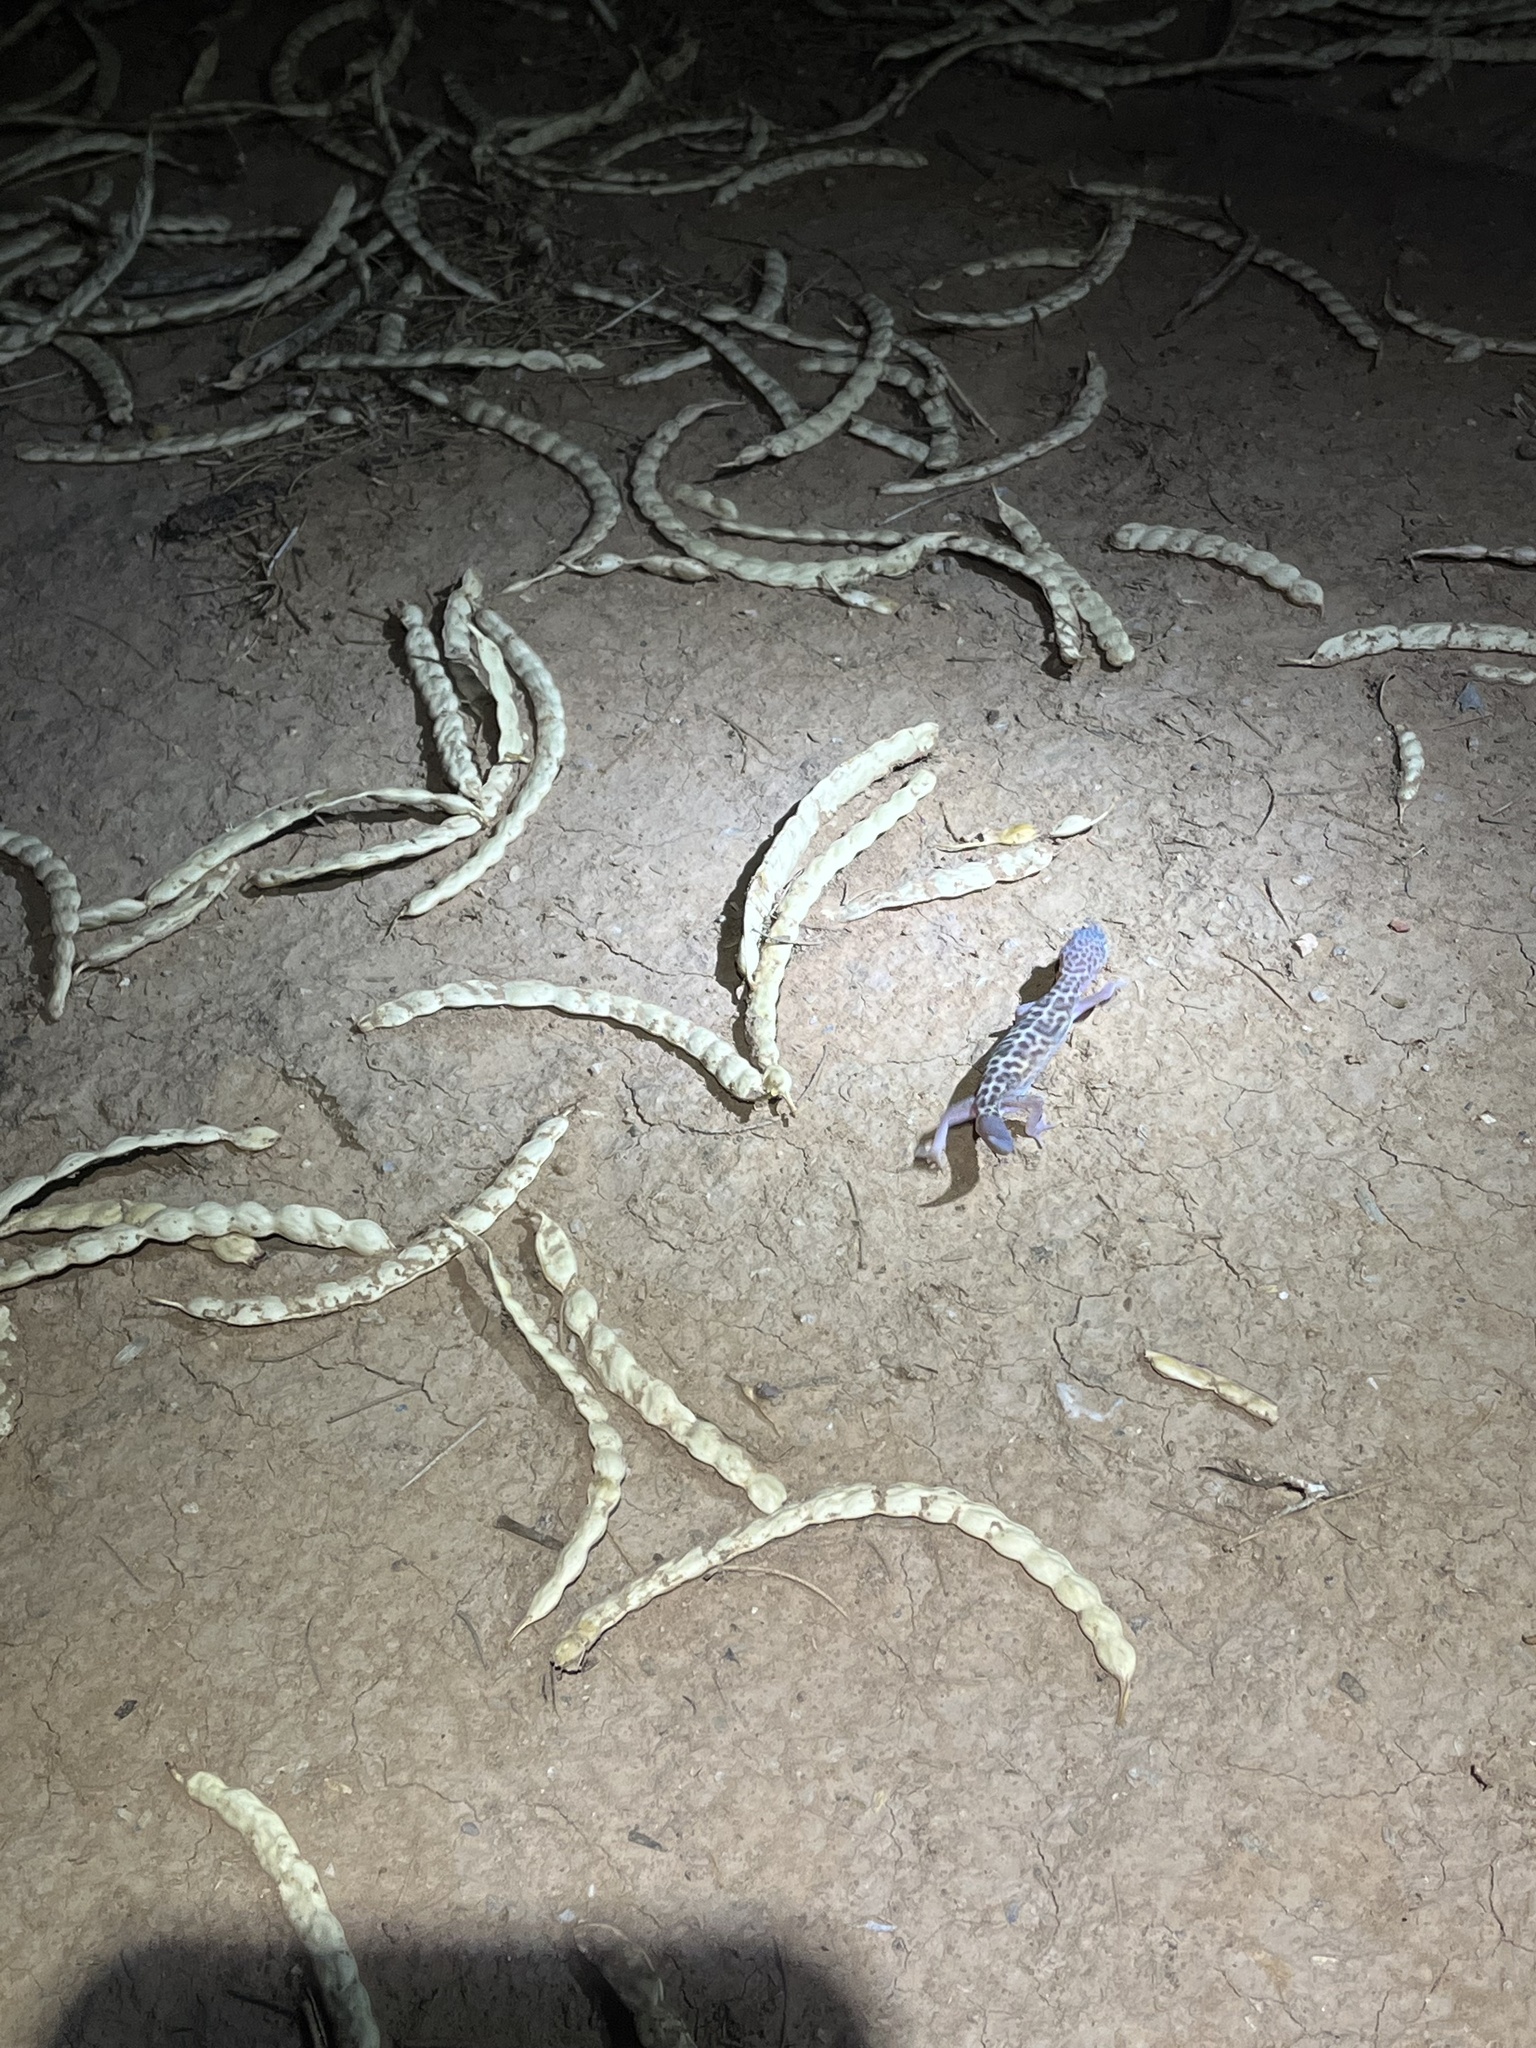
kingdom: Animalia
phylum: Chordata
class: Squamata
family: Eublepharidae
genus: Coleonyx
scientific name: Coleonyx variegatus
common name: Western banded gecko
